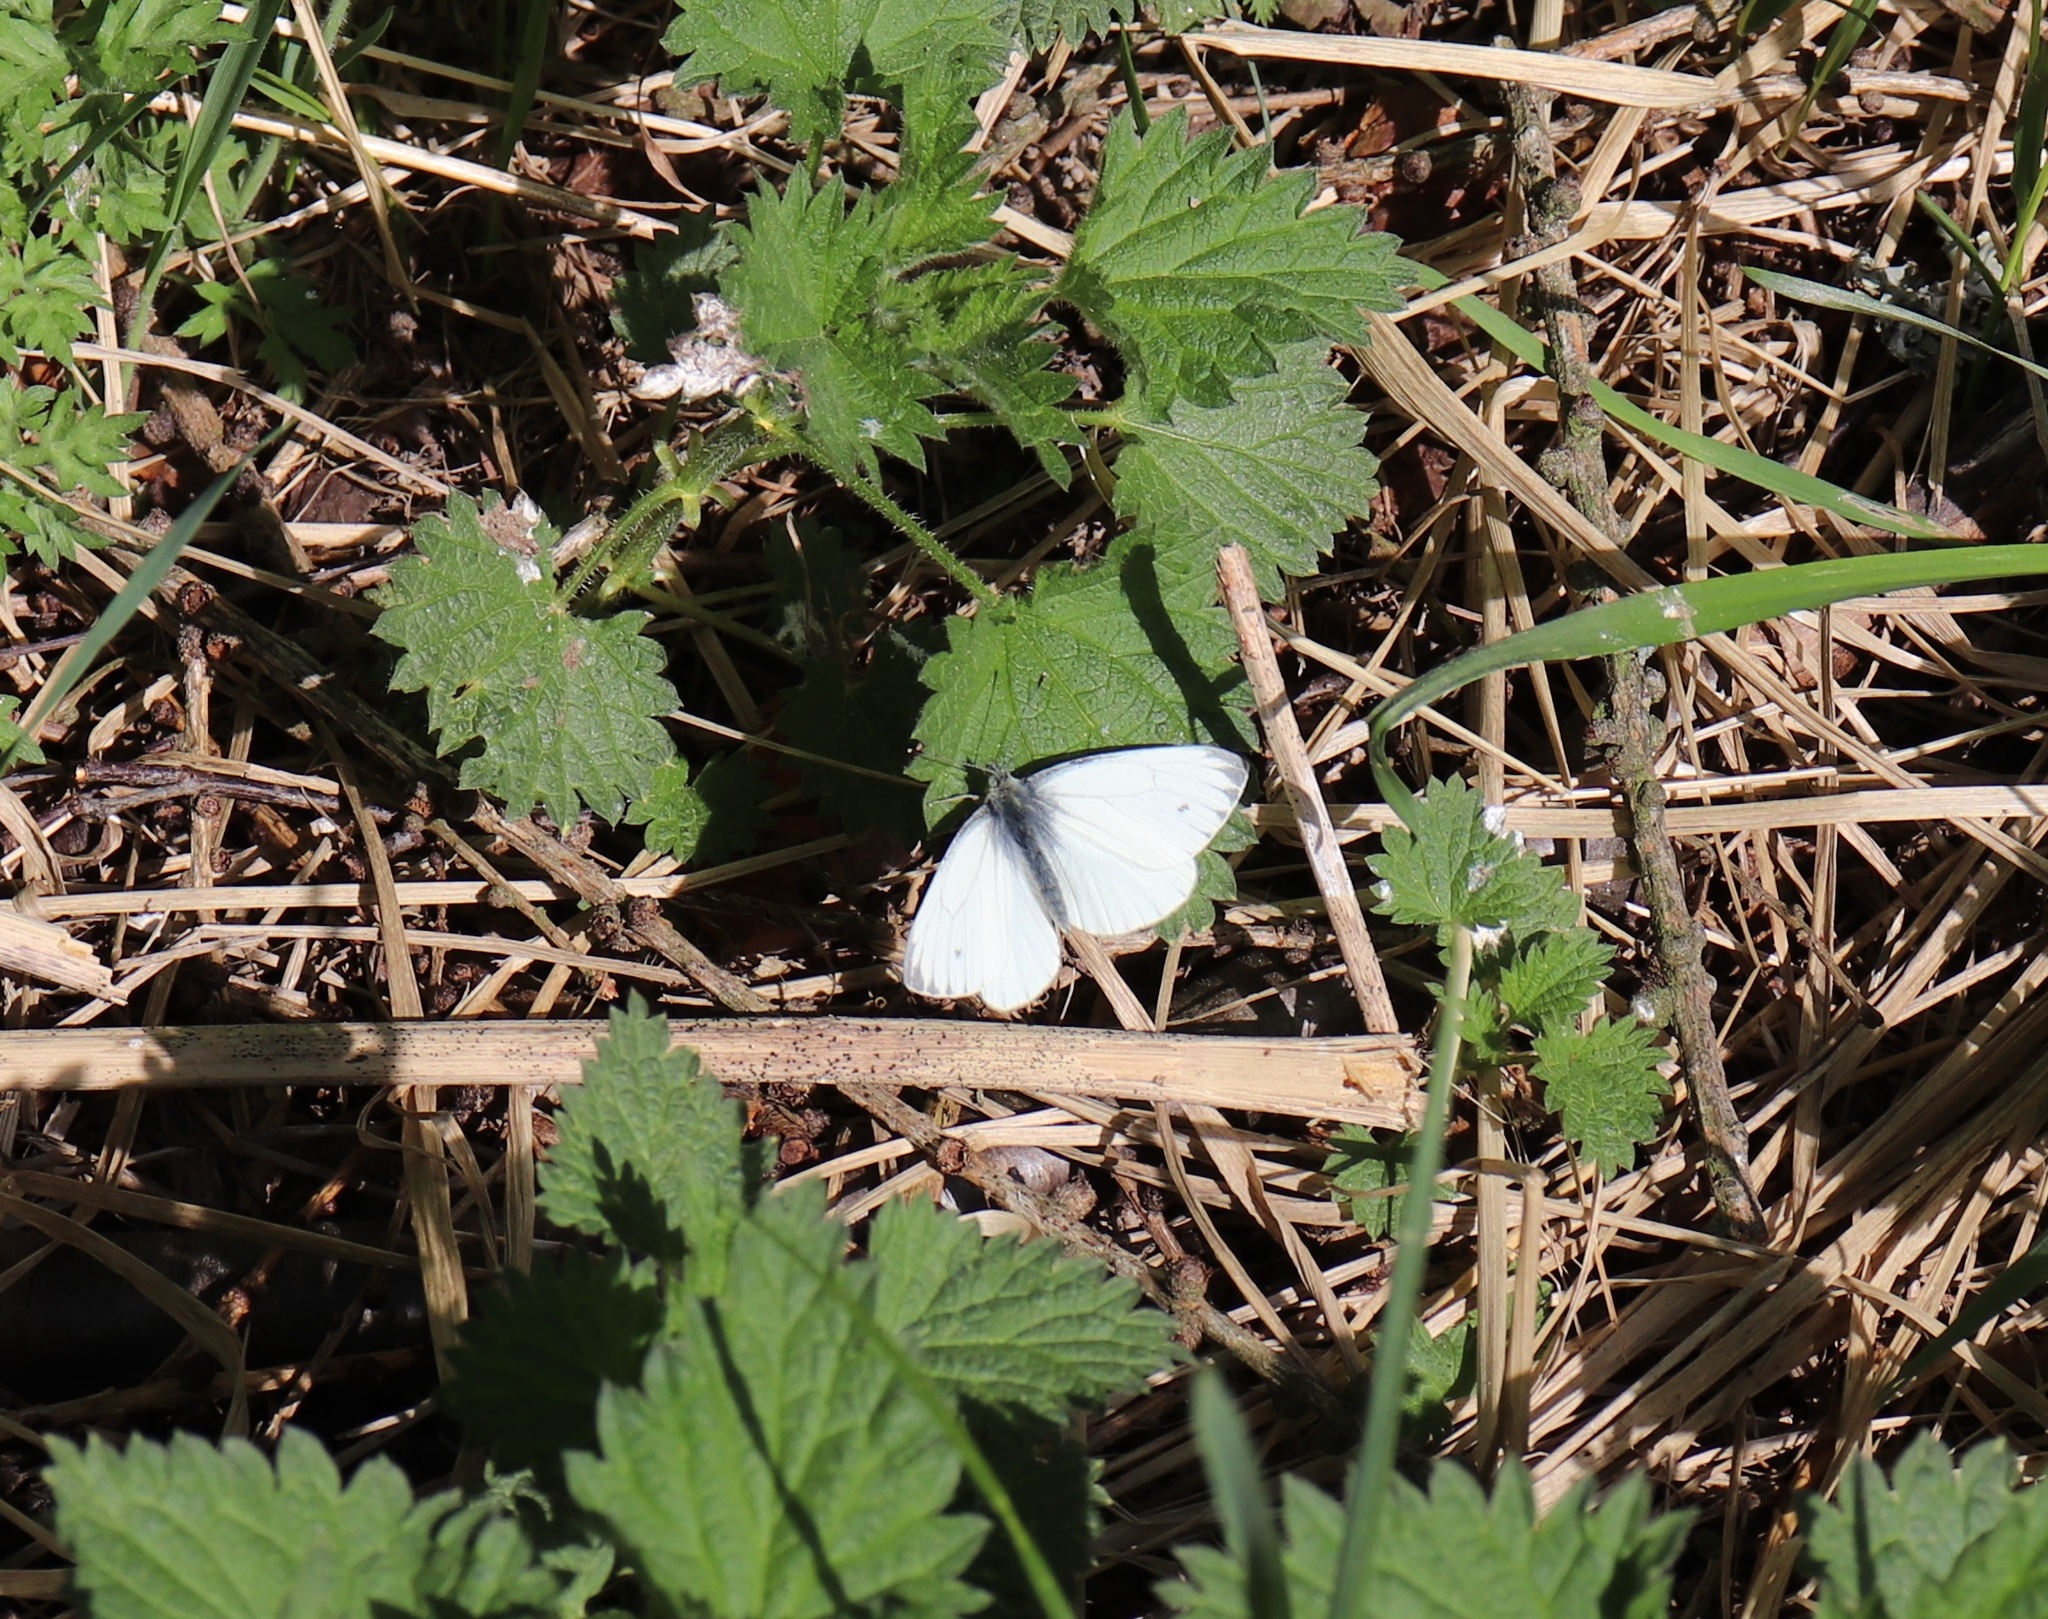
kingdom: Animalia
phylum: Arthropoda
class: Insecta
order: Lepidoptera
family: Pieridae
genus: Pieris
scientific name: Pieris napi
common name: Green-veined white
